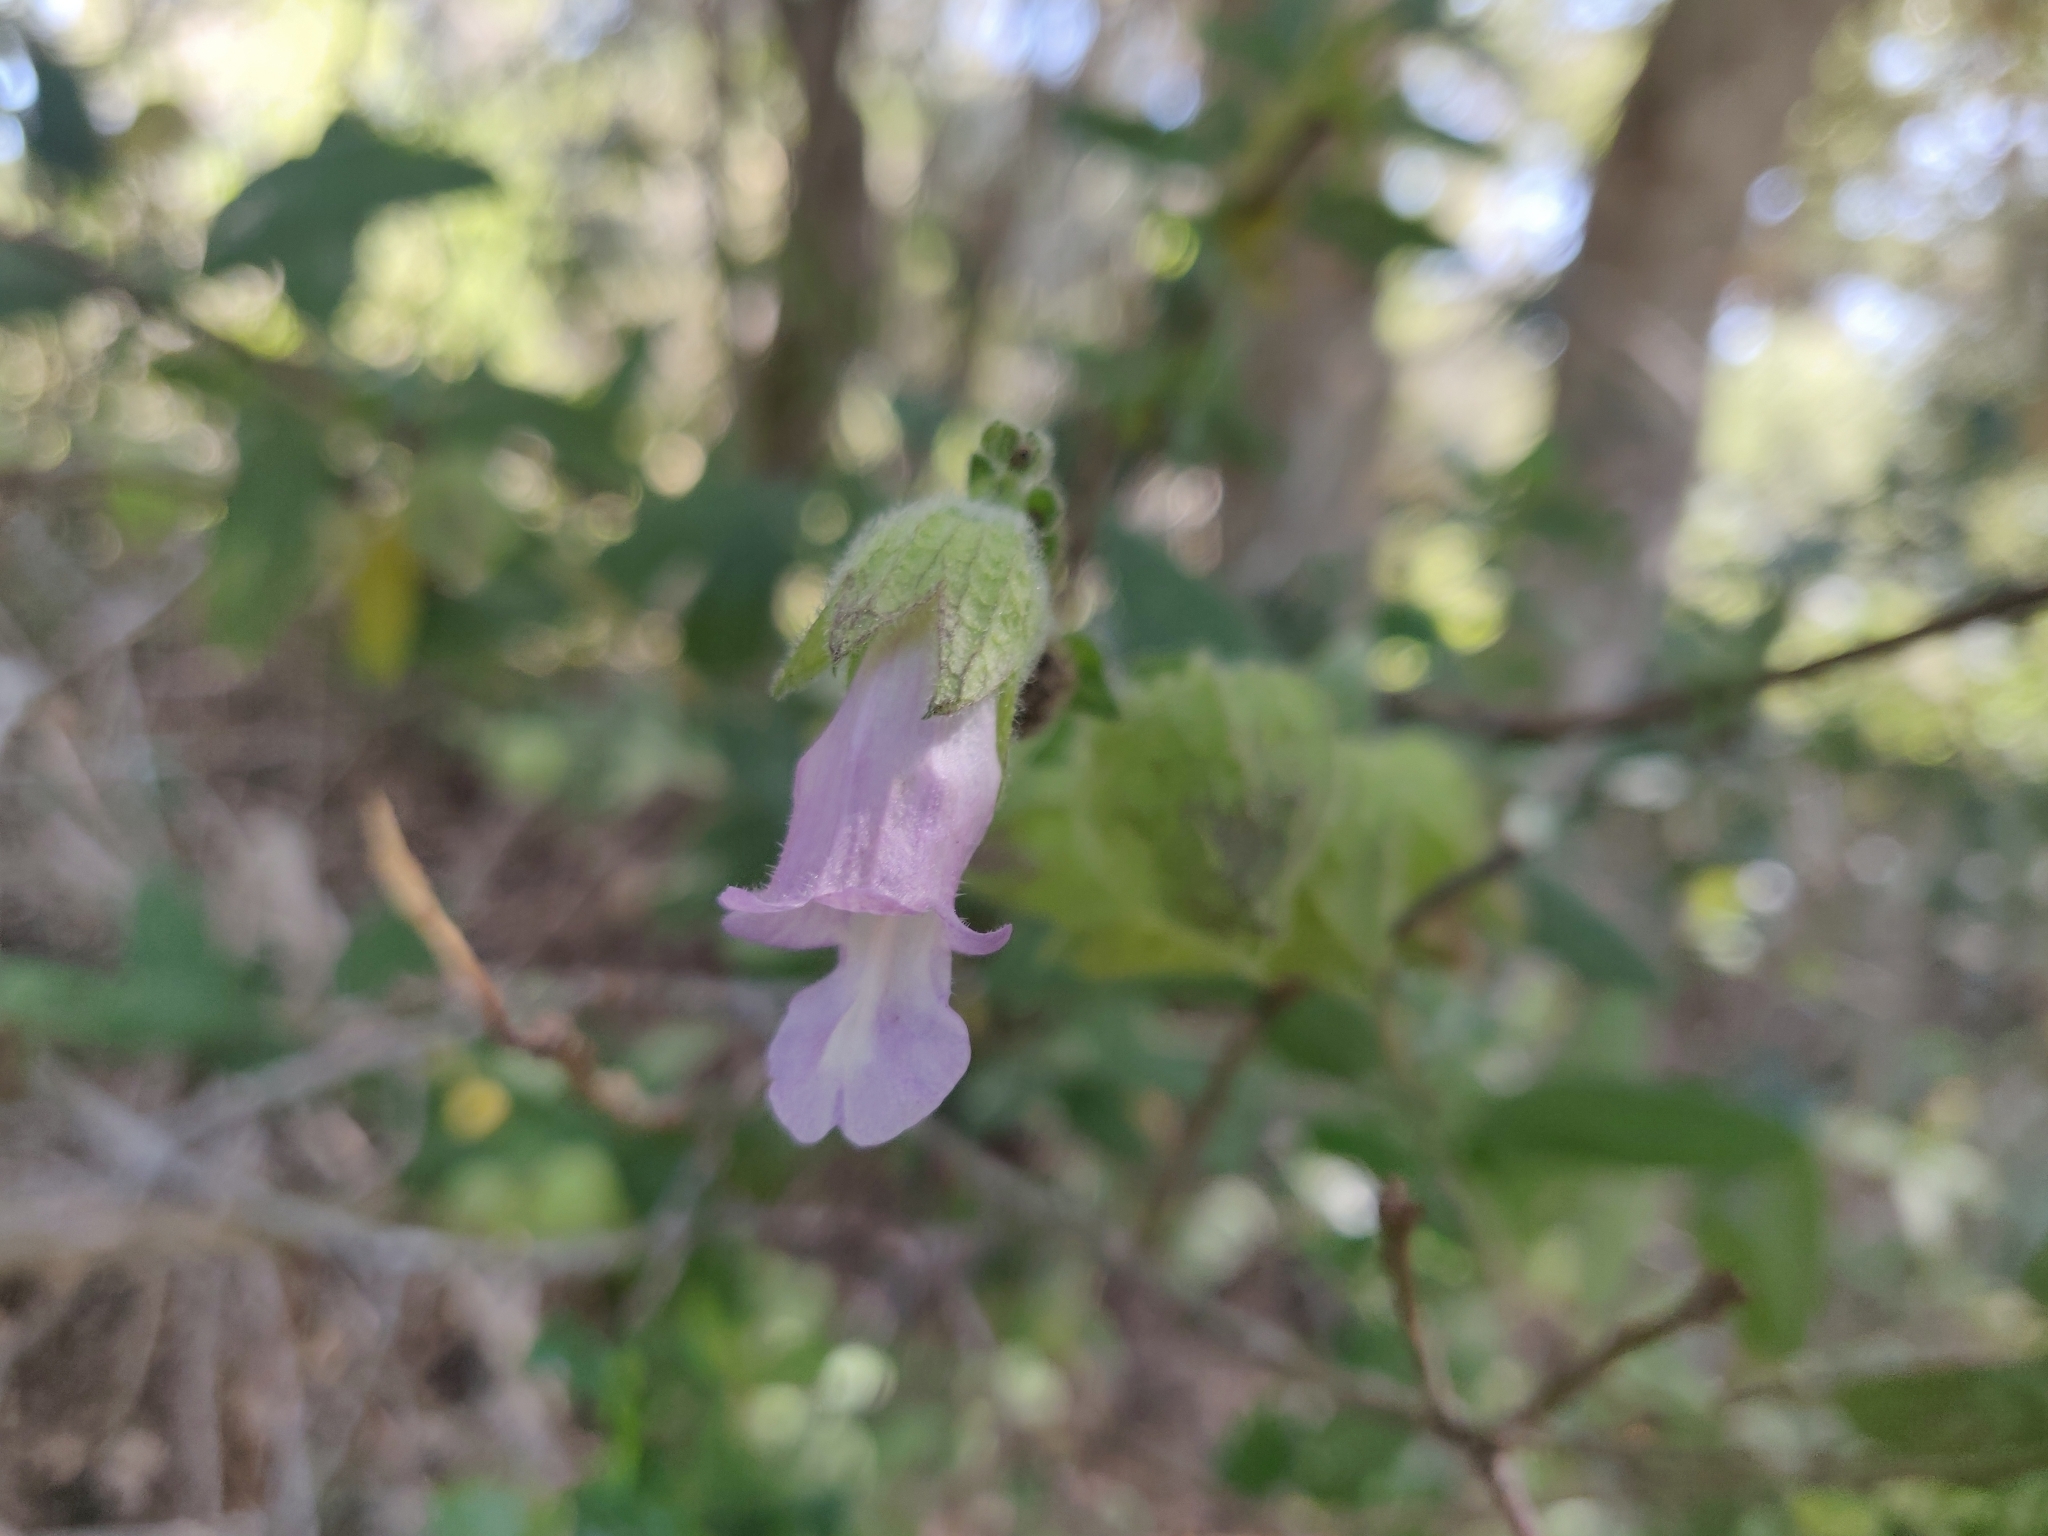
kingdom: Plantae
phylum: Tracheophyta
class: Magnoliopsida
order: Lamiales
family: Lamiaceae
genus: Lepechinia
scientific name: Lepechinia calycina
